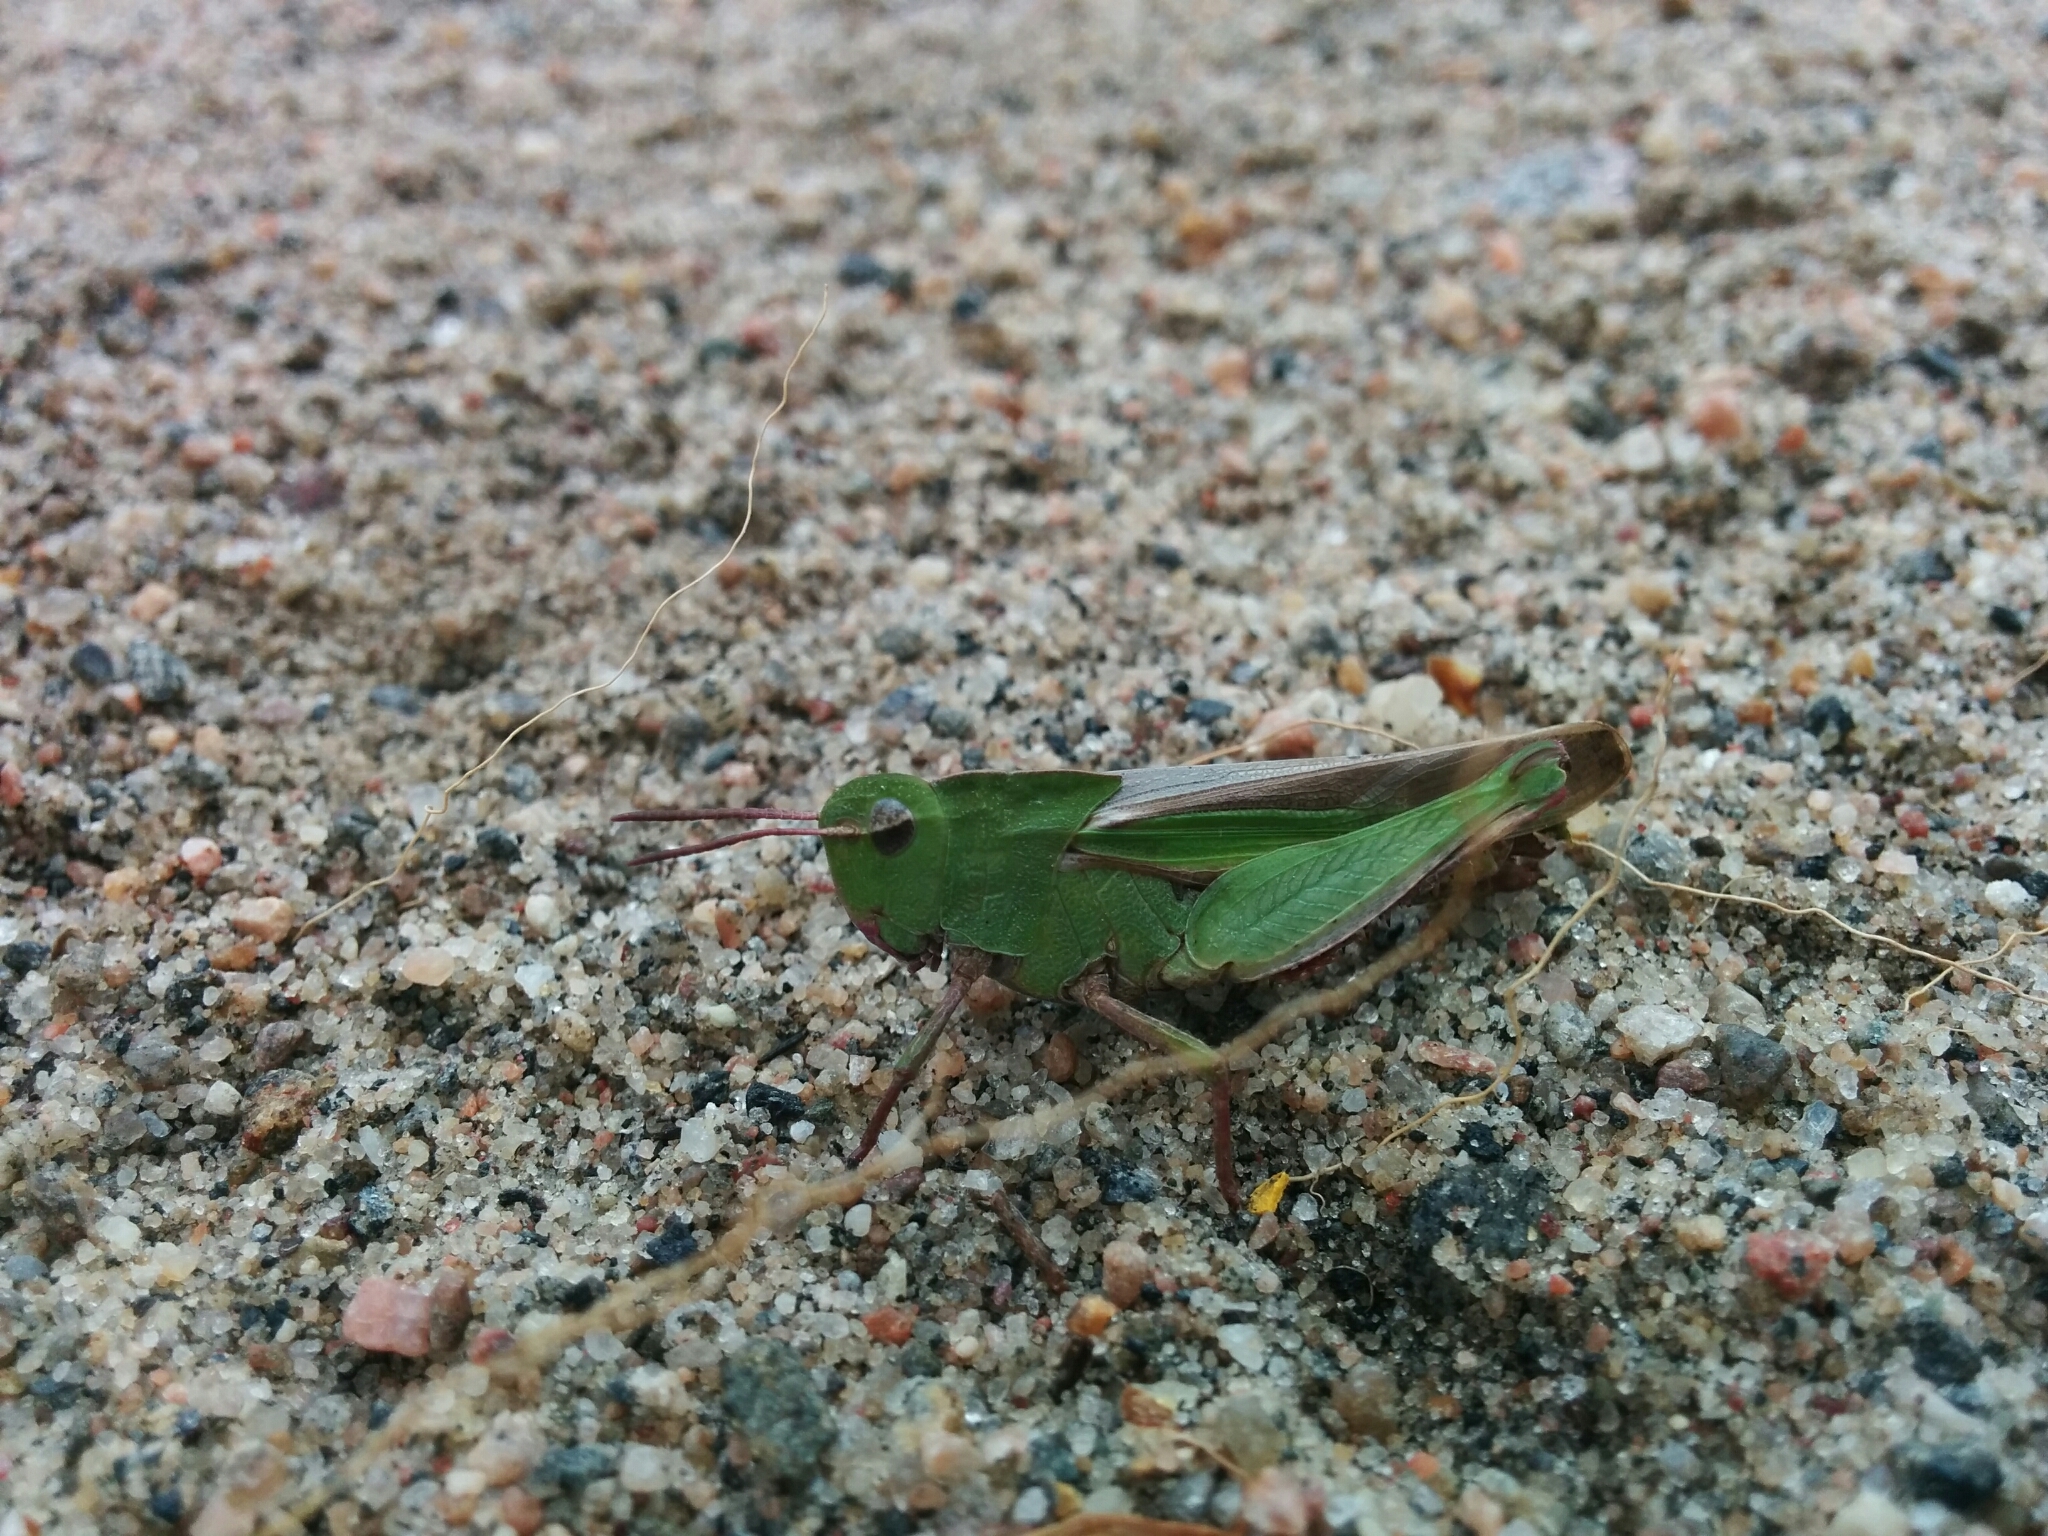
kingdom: Animalia
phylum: Arthropoda
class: Insecta
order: Orthoptera
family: Acrididae
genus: Chortophaga
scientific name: Chortophaga viridifasciata
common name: Green-striped grasshopper
